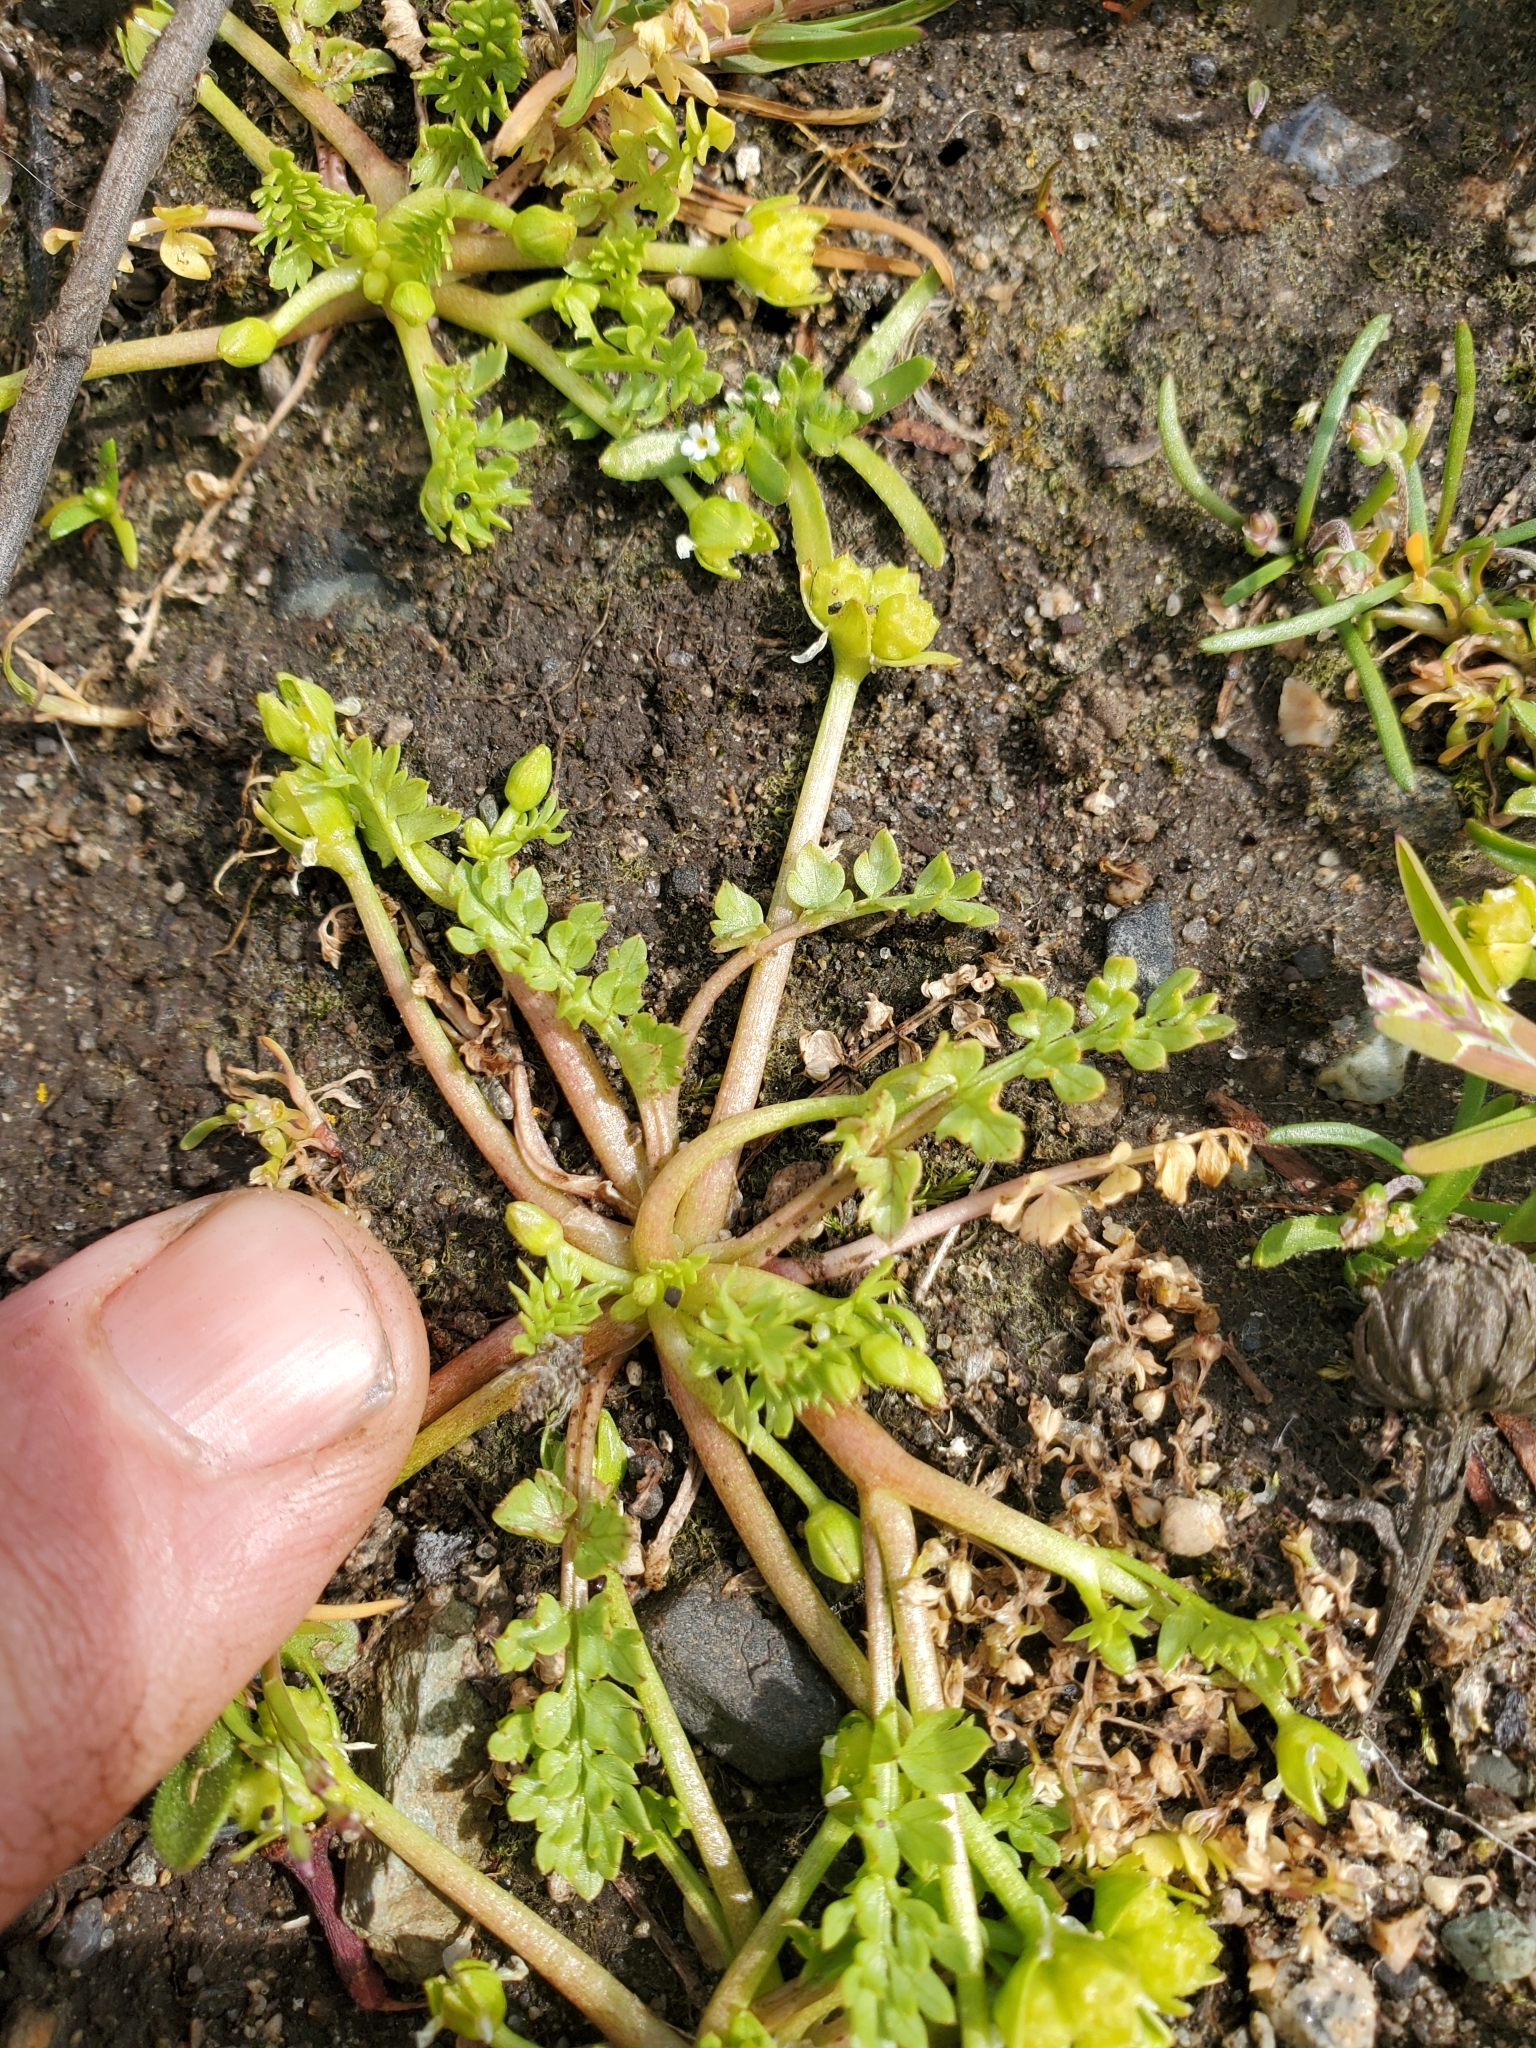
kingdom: Plantae
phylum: Tracheophyta
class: Magnoliopsida
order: Brassicales
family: Limnanthaceae
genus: Limnanthes
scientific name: Limnanthes macounii
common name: Macoun's meadowfoam
